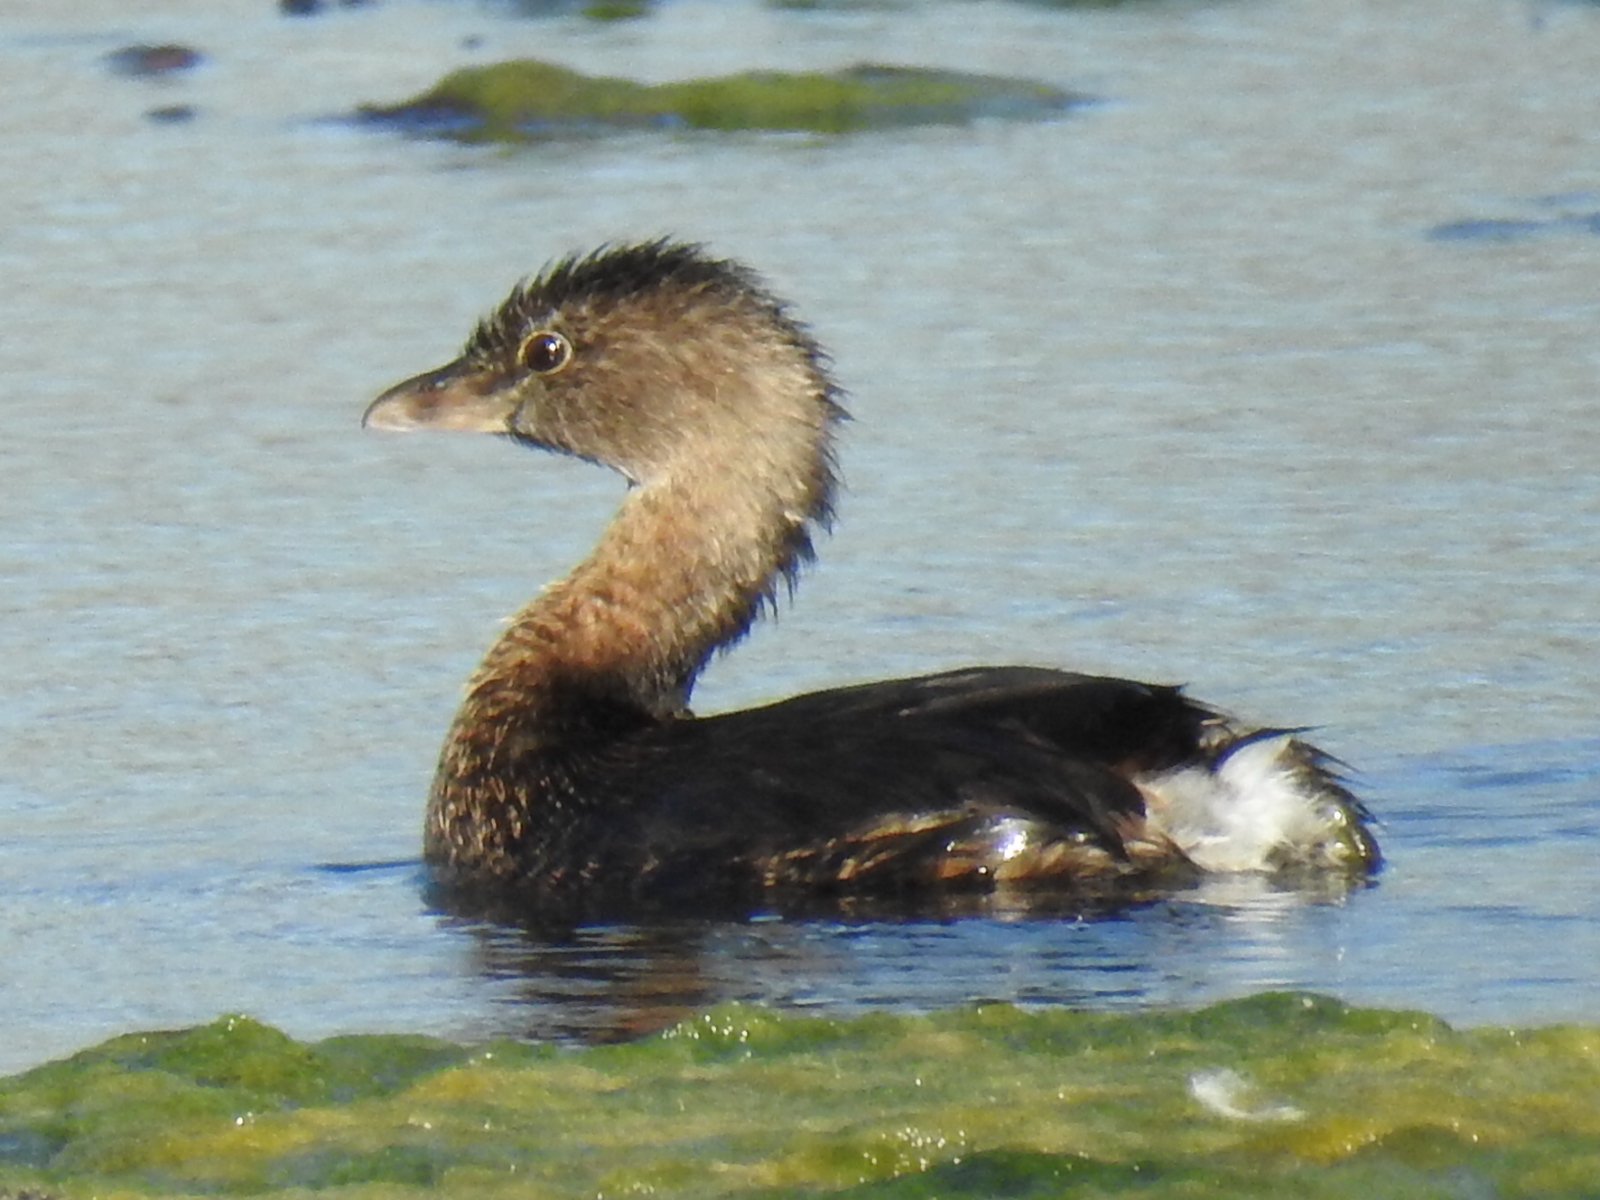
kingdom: Animalia
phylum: Chordata
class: Aves
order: Podicipediformes
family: Podicipedidae
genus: Podilymbus
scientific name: Podilymbus podiceps
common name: Pied-billed grebe
